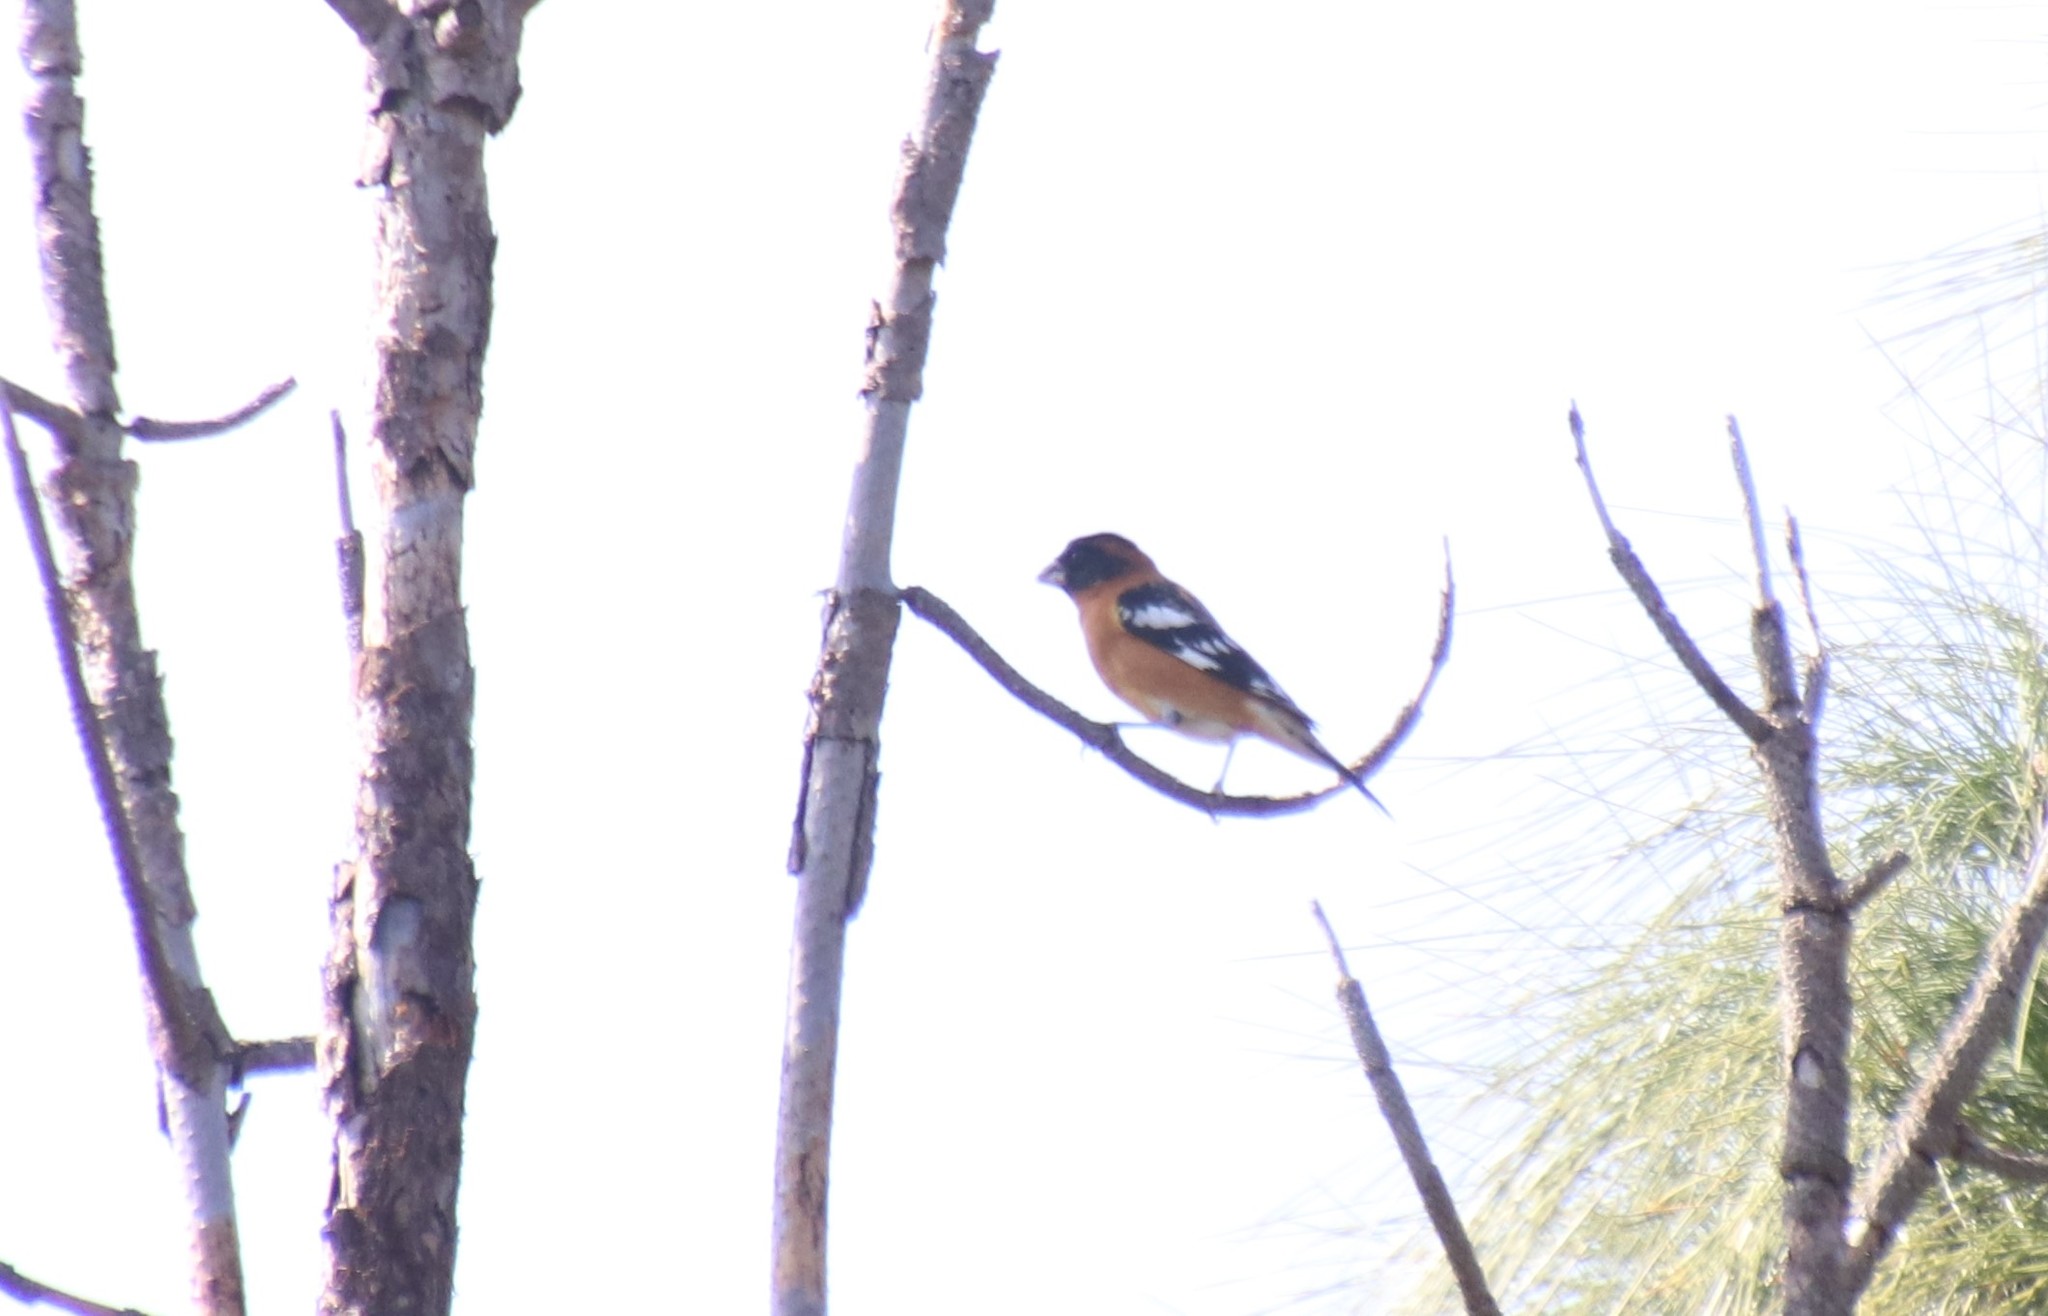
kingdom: Animalia
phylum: Chordata
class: Aves
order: Passeriformes
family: Cardinalidae
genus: Pheucticus
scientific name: Pheucticus melanocephalus
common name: Black-headed grosbeak
